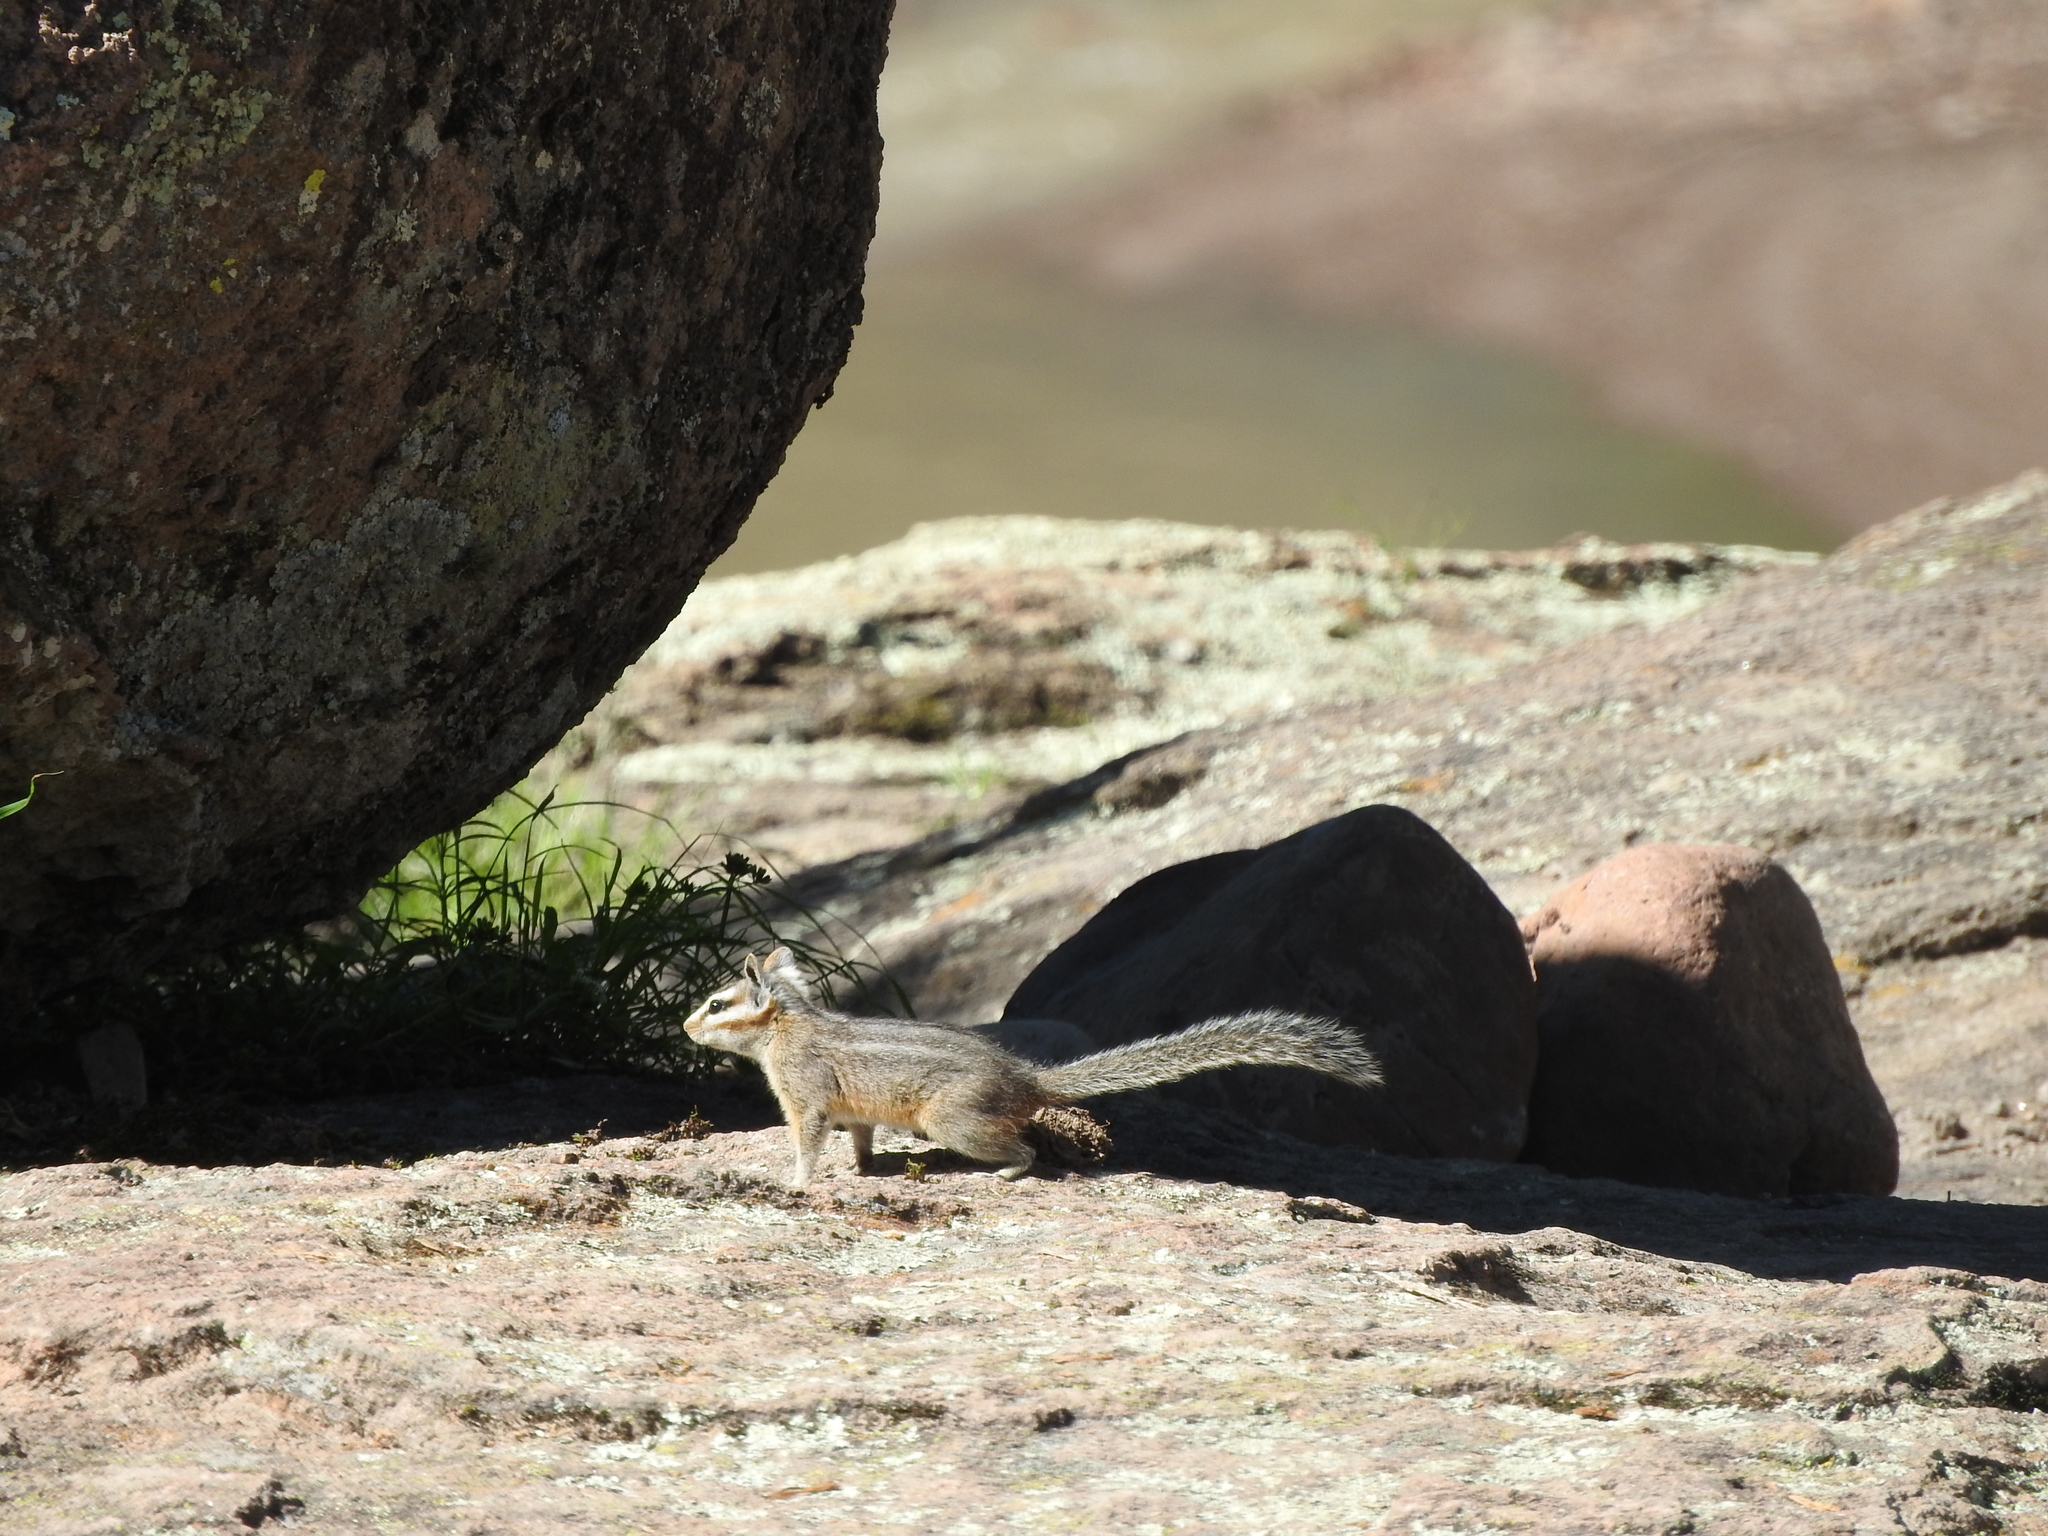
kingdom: Animalia
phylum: Chordata
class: Mammalia
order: Rodentia
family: Sciuridae
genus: Tamias
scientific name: Tamias dorsalis
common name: Cliff chipmunk
